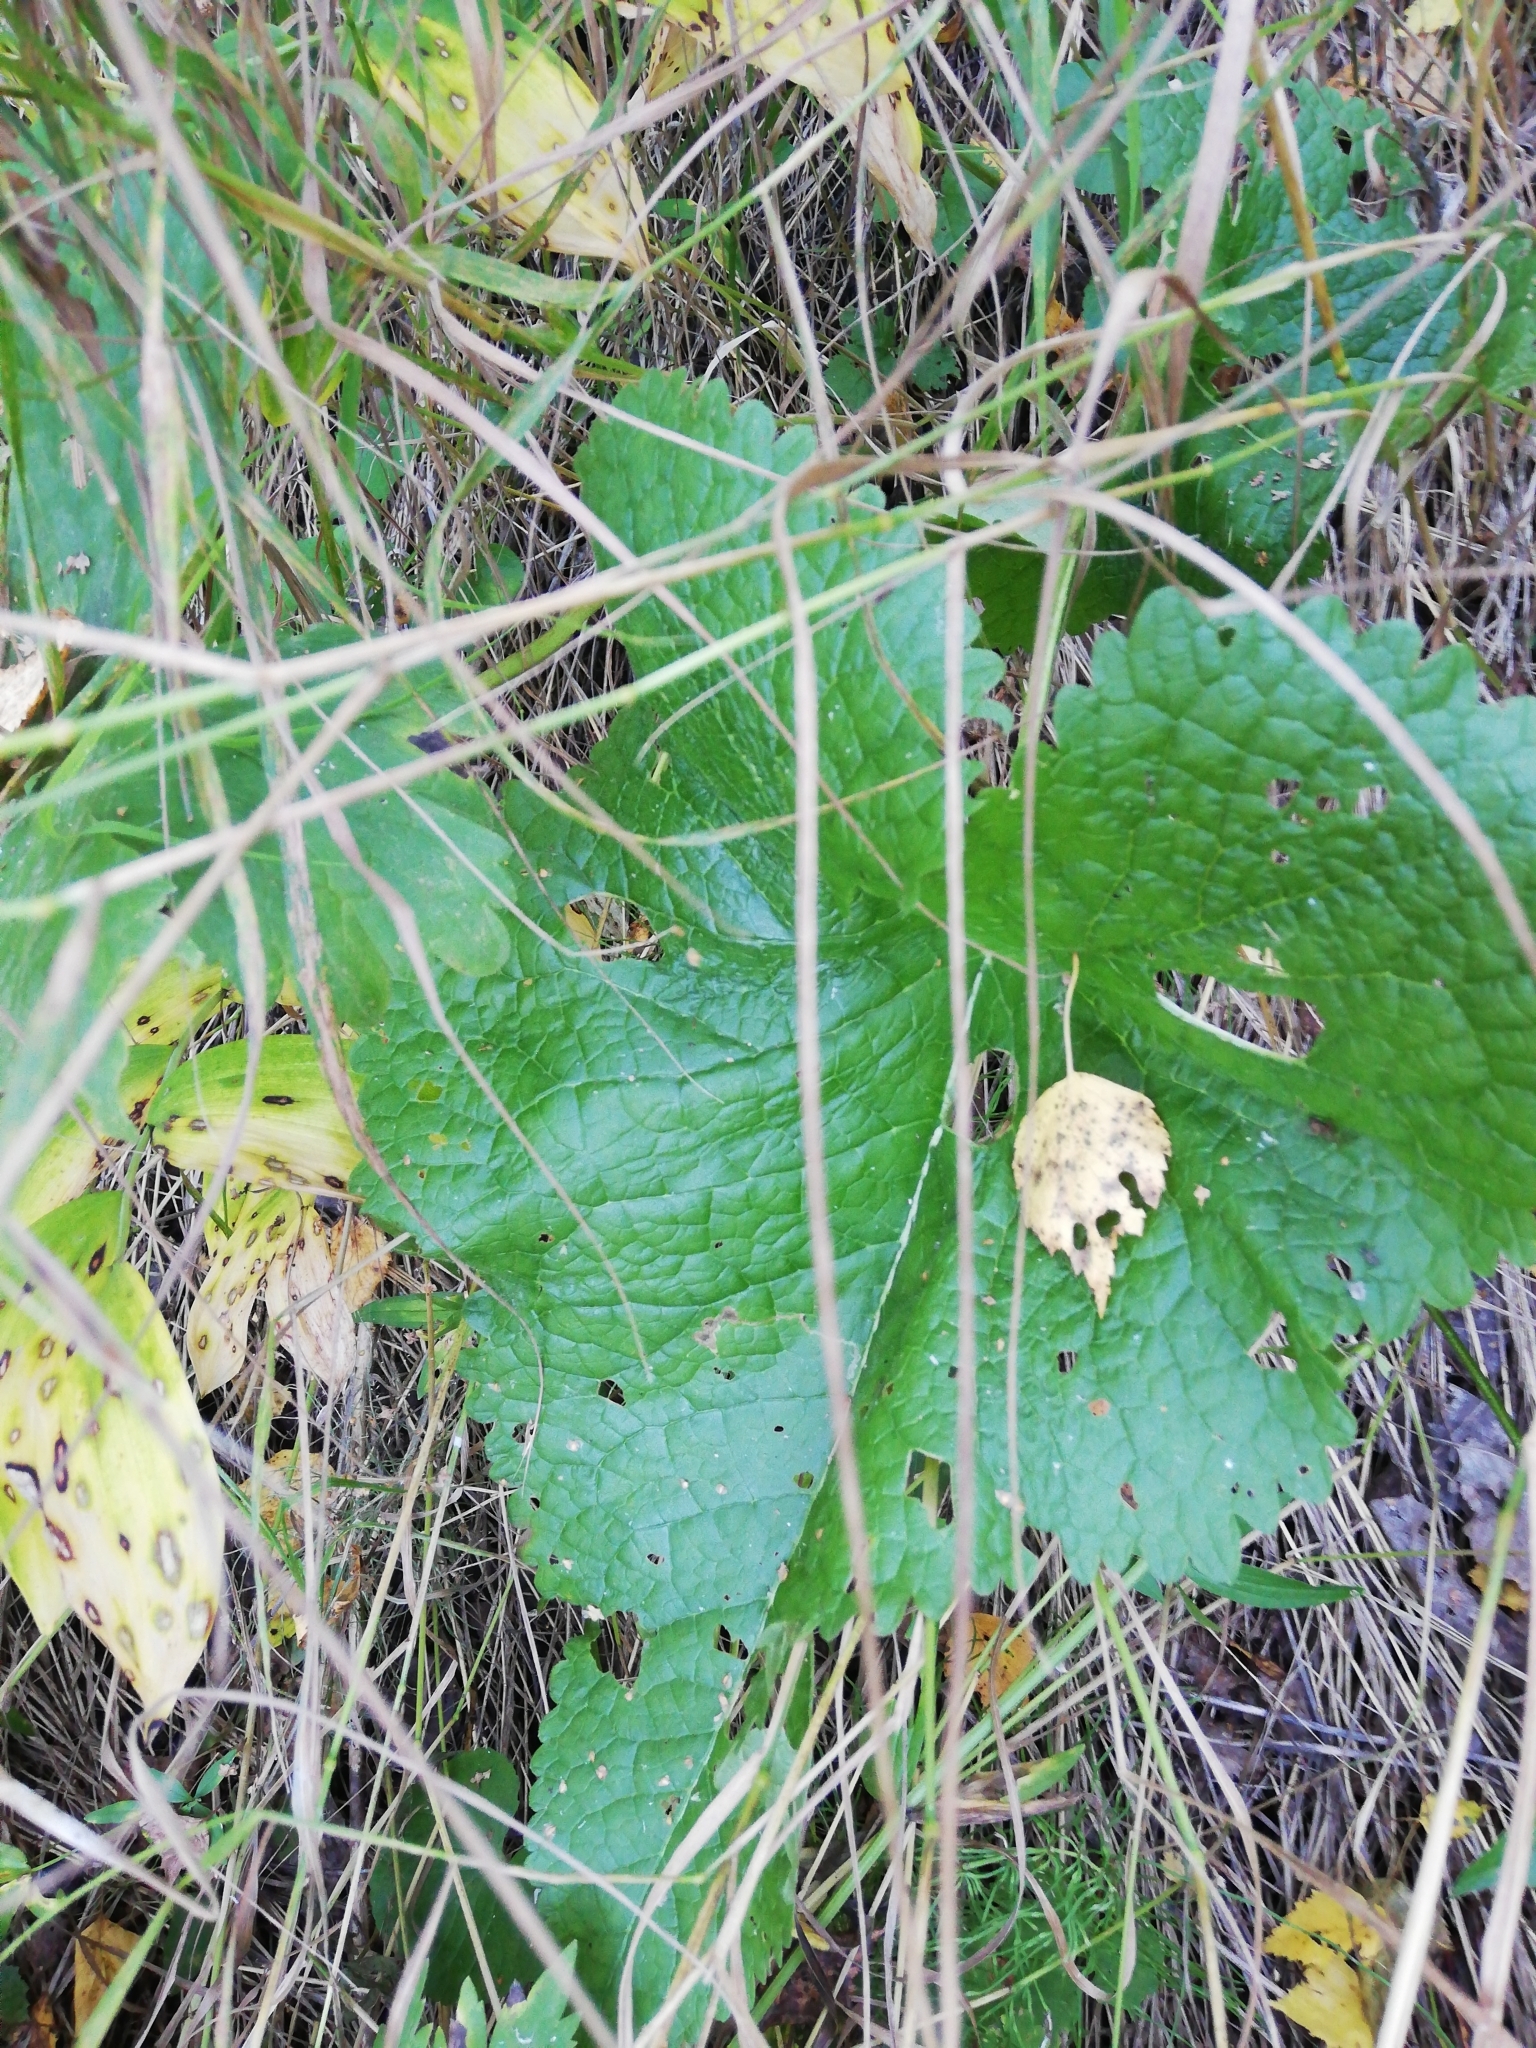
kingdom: Plantae
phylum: Tracheophyta
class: Magnoliopsida
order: Lamiales
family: Lamiaceae
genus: Phlomoides
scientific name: Phlomoides tuberosa
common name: Tuberous jerusalem sage
